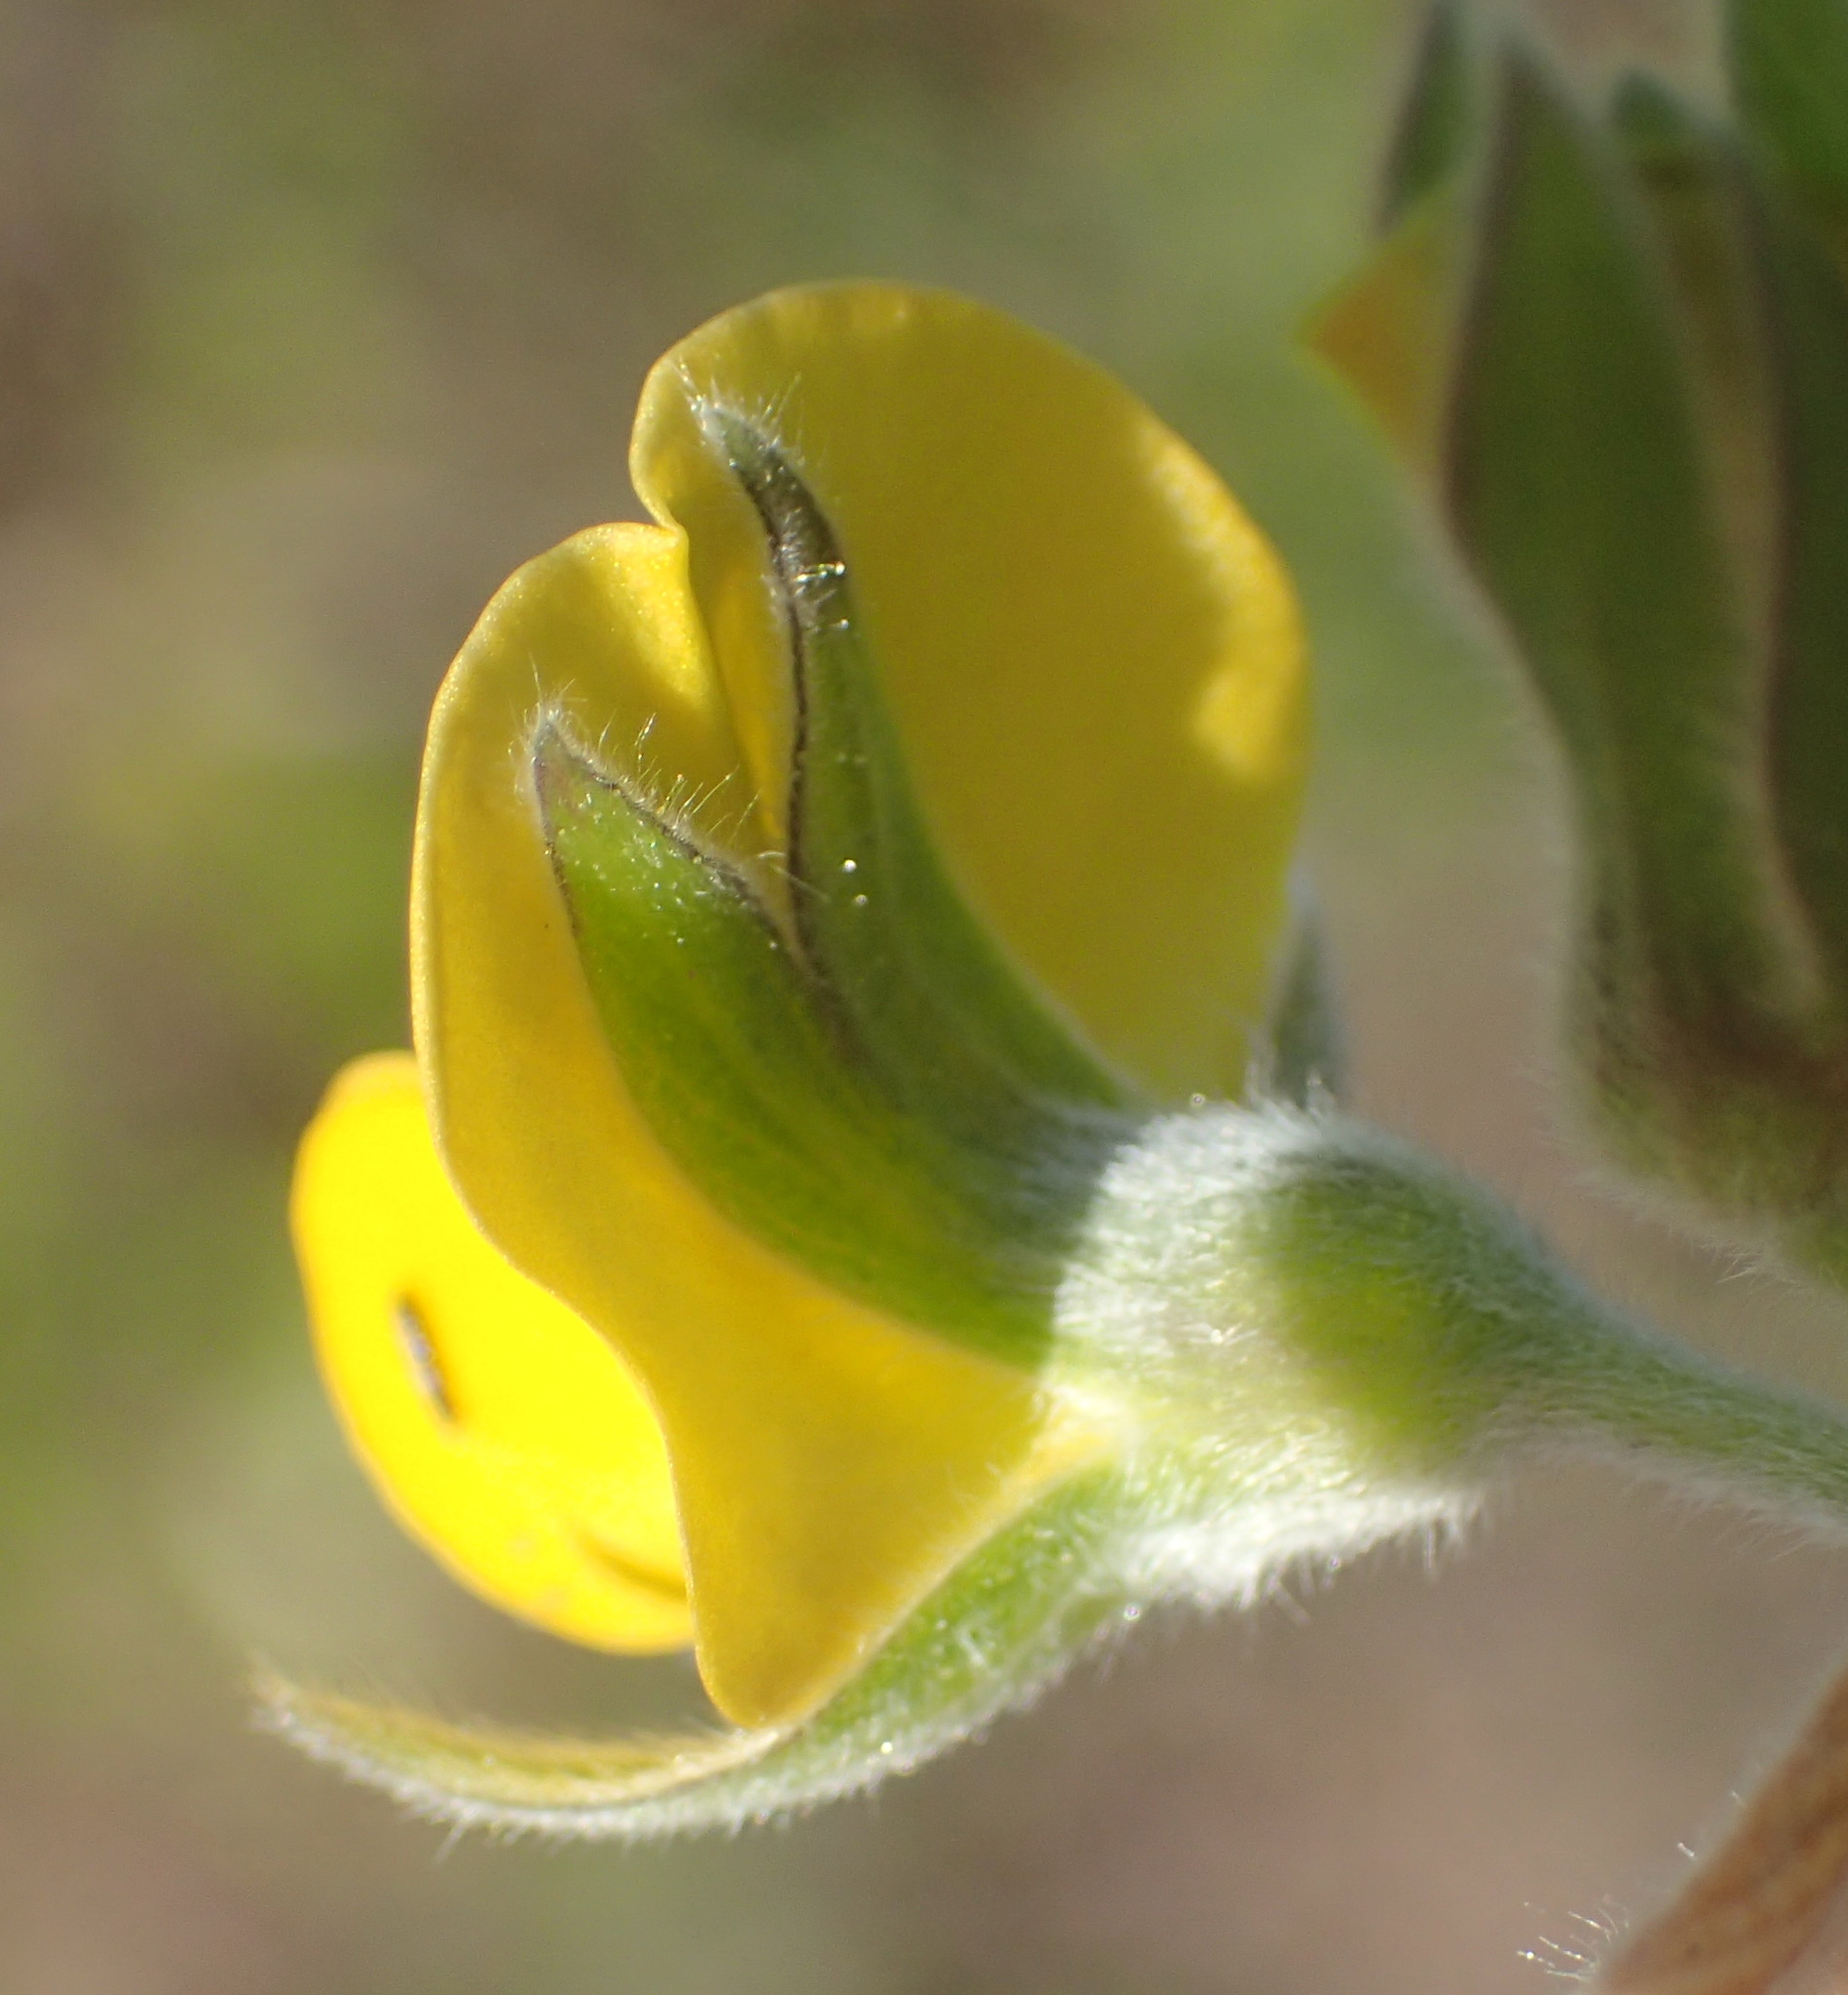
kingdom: Plantae
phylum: Tracheophyta
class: Magnoliopsida
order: Fabales
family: Fabaceae
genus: Rhynchosia
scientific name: Rhynchosia chrysoscias
